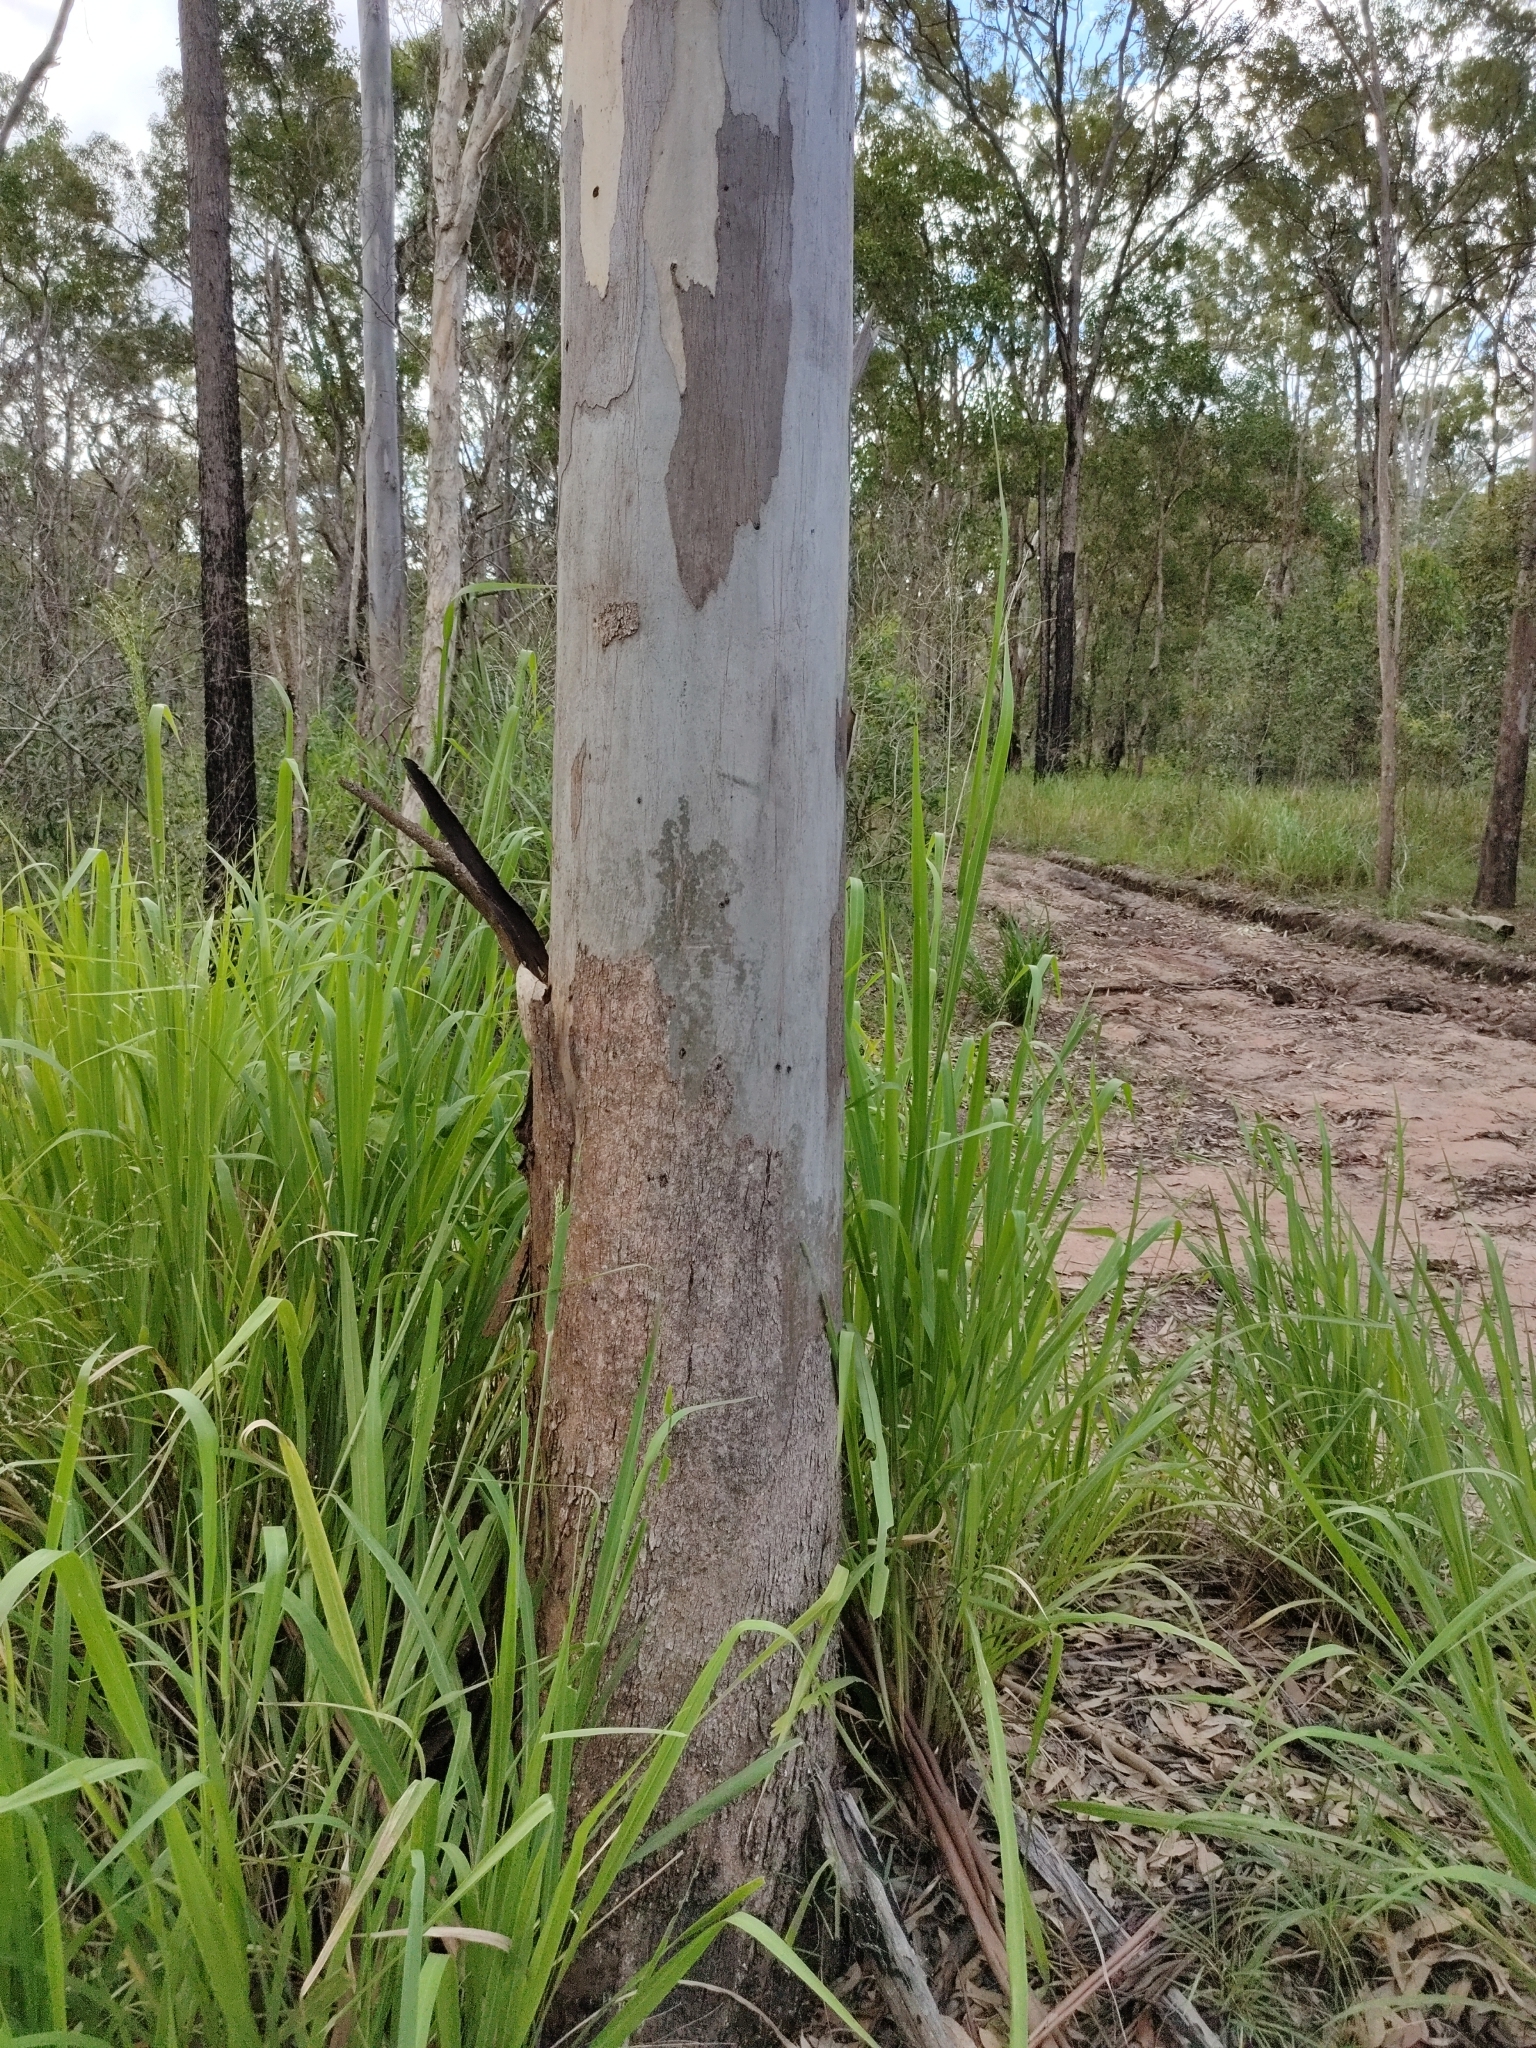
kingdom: Plantae
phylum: Tracheophyta
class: Magnoliopsida
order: Myrtales
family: Myrtaceae
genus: Eucalyptus
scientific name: Eucalyptus tereticornis
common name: Forest redgum
